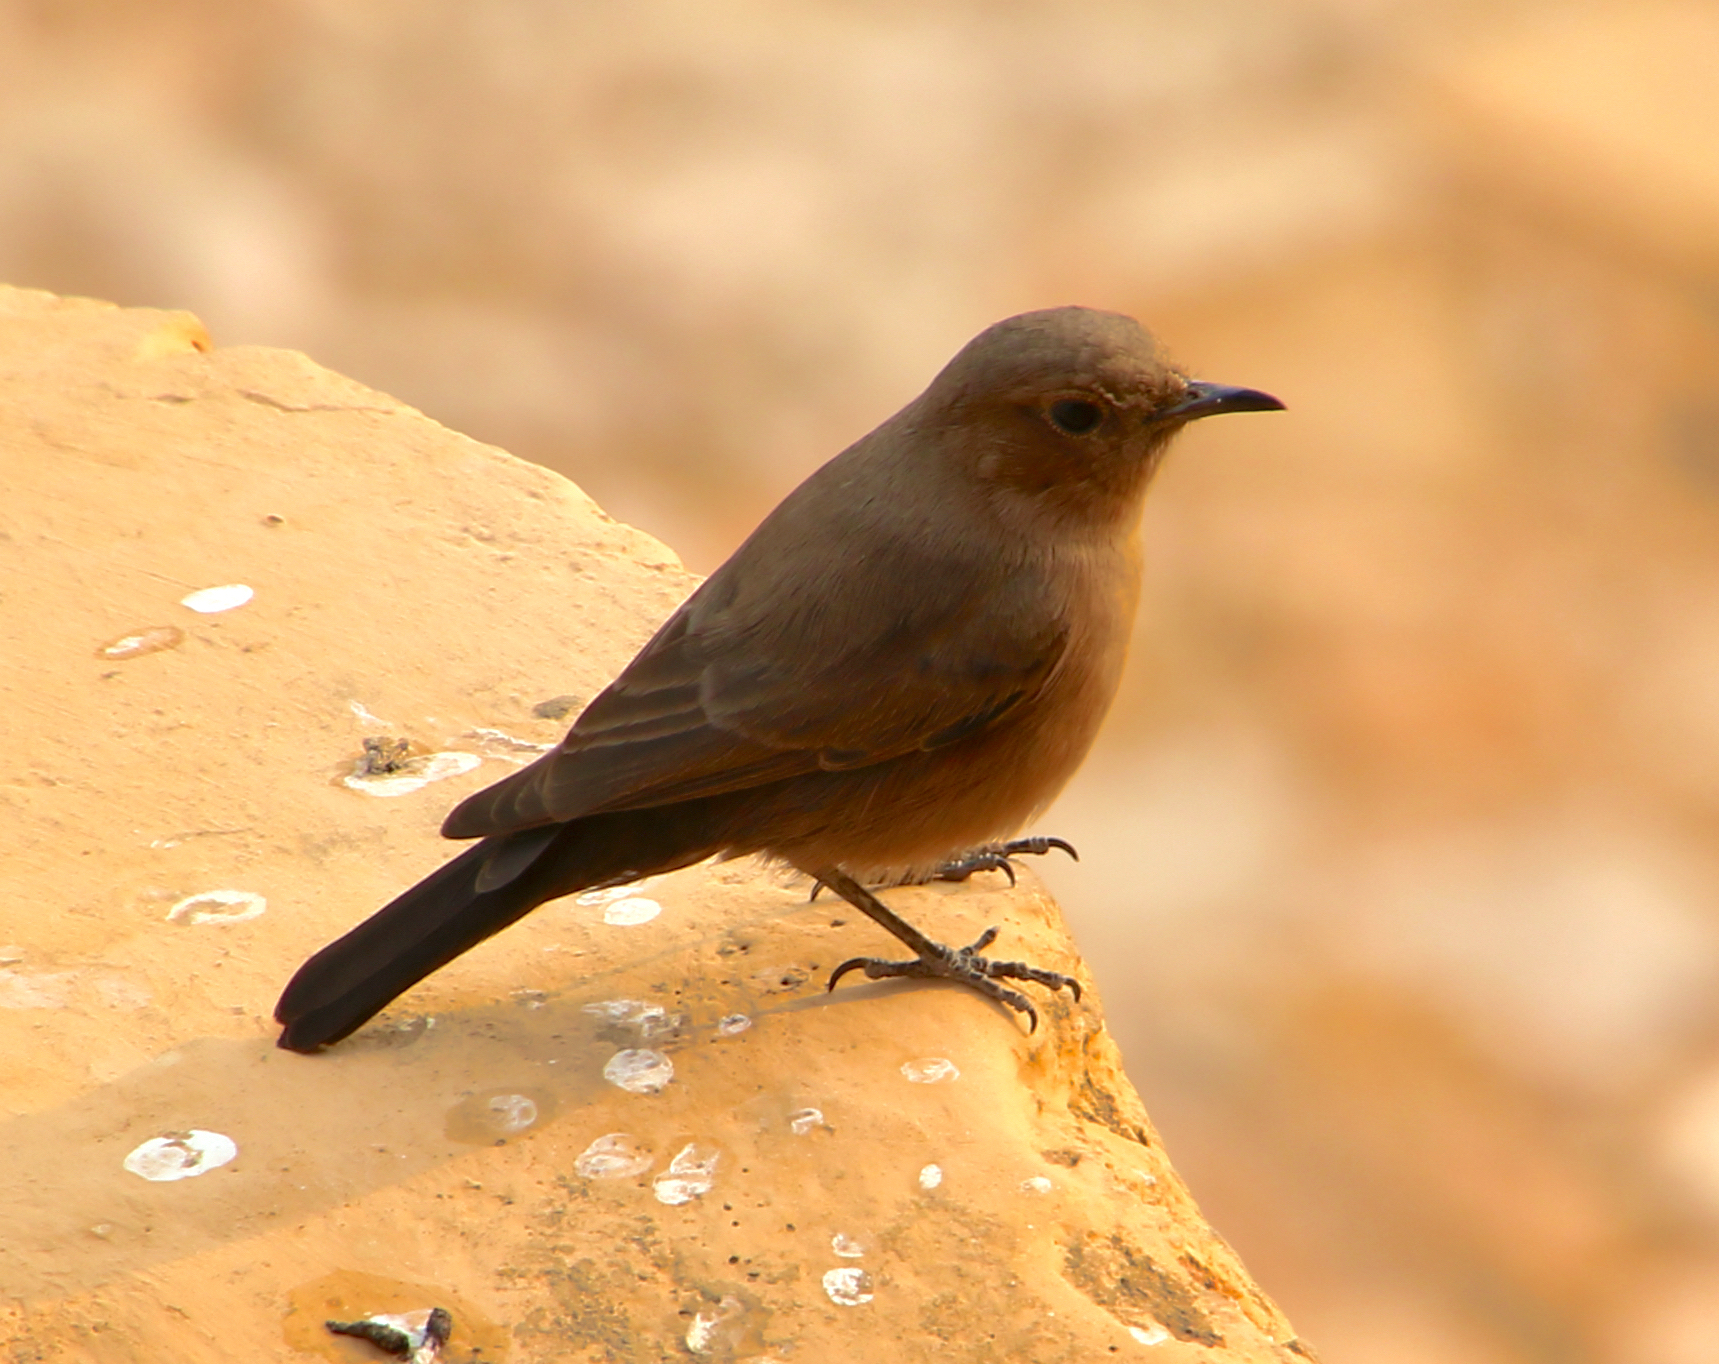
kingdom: Animalia
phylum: Chordata
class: Aves
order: Passeriformes
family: Muscicapidae
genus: Oenanthe
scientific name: Oenanthe fusca
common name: Brown rock chat
